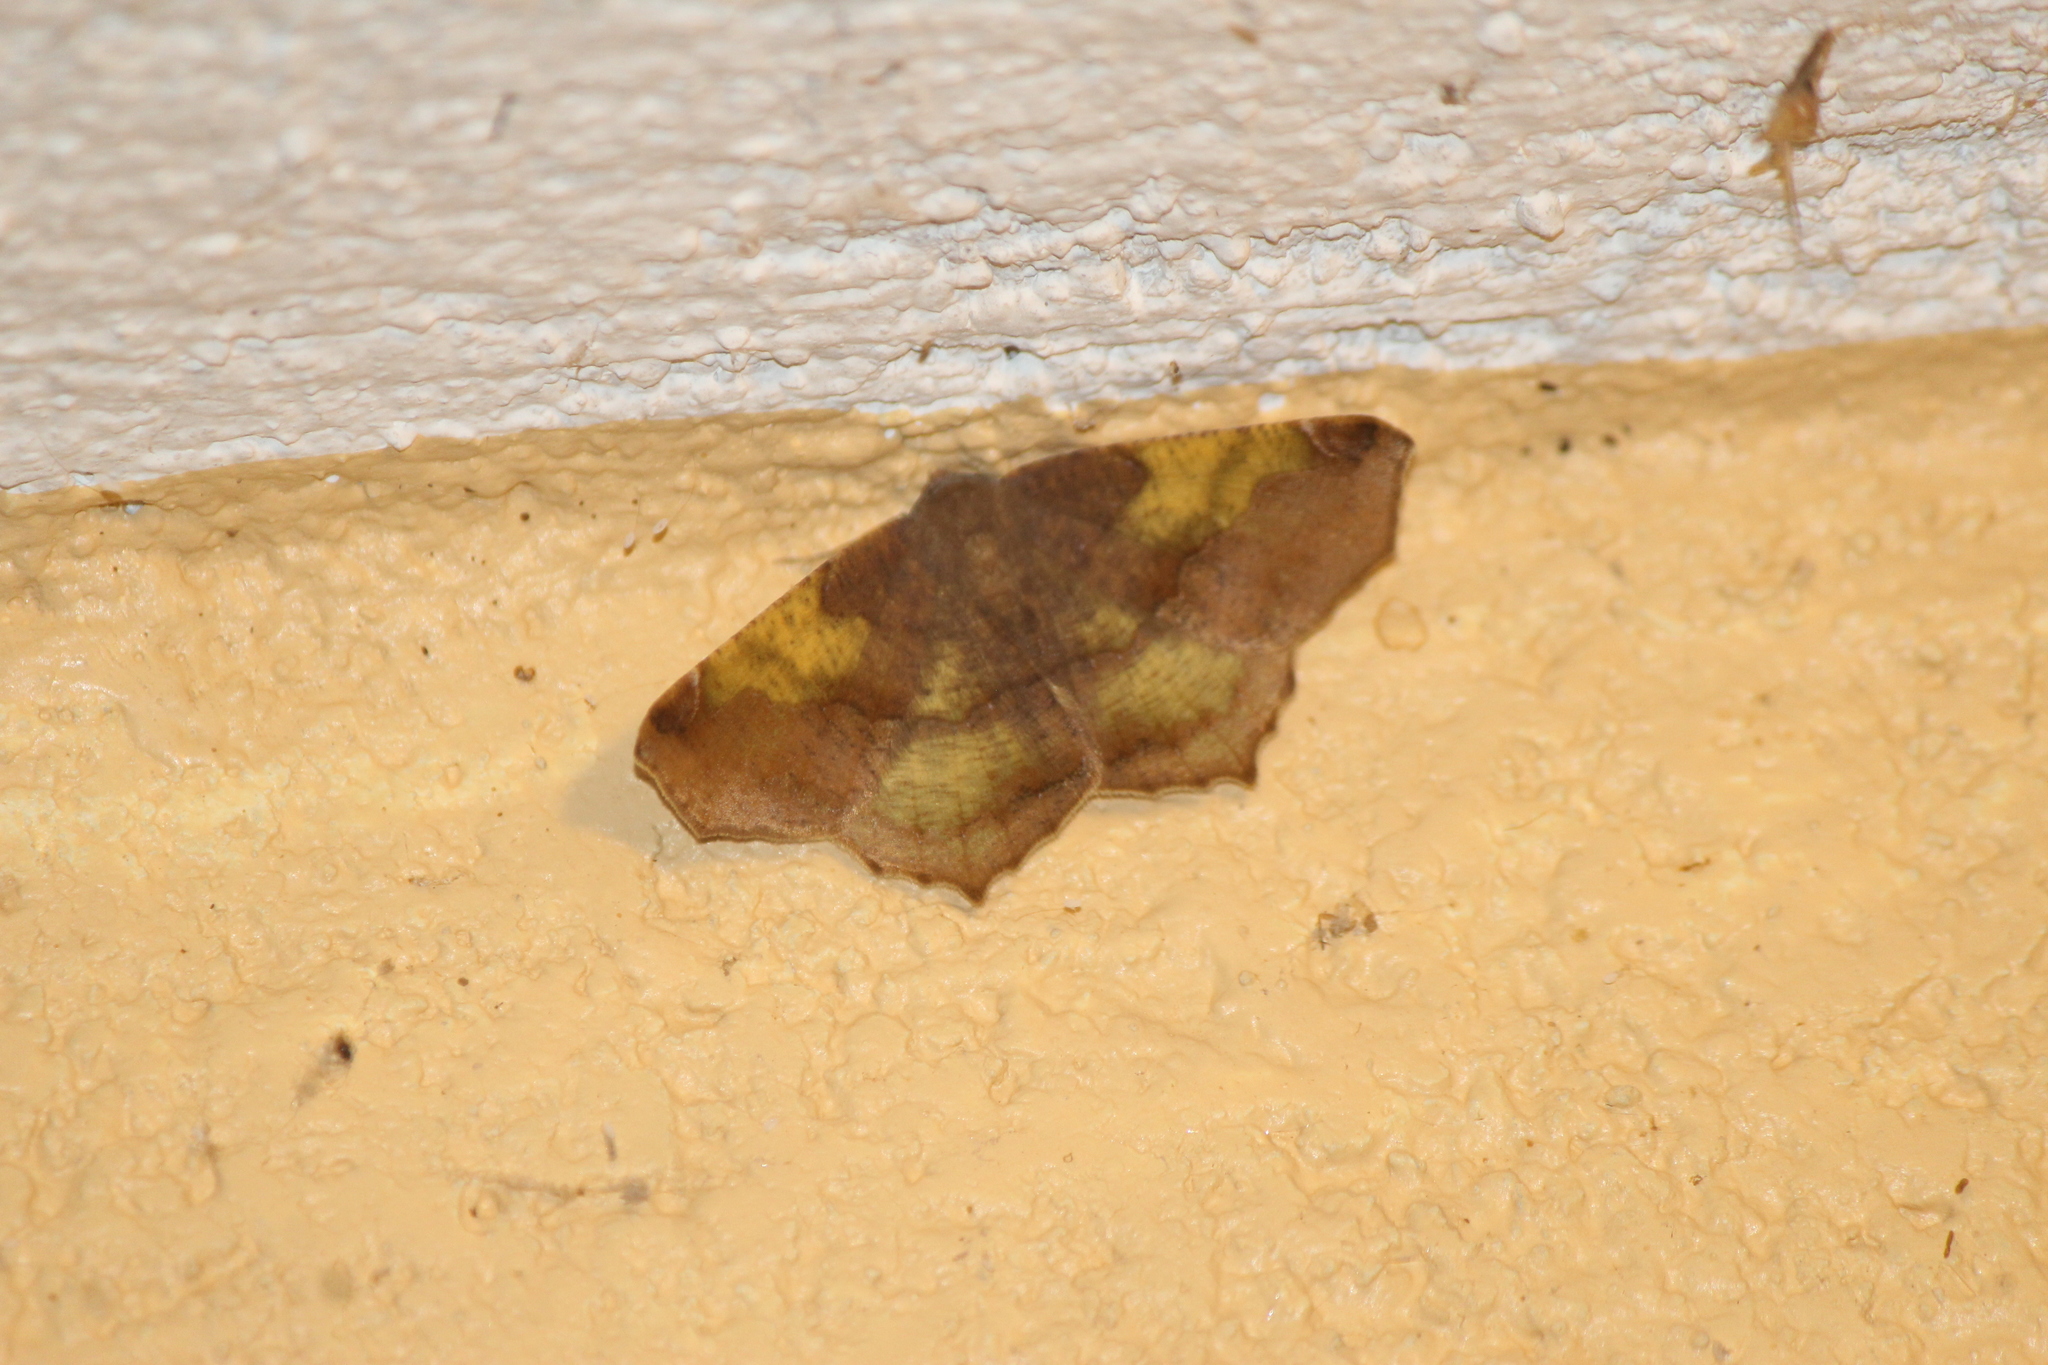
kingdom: Animalia
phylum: Arthropoda
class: Insecta
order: Lepidoptera
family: Geometridae
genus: Antepione
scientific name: Antepione thisoaria
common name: Variable antipione
